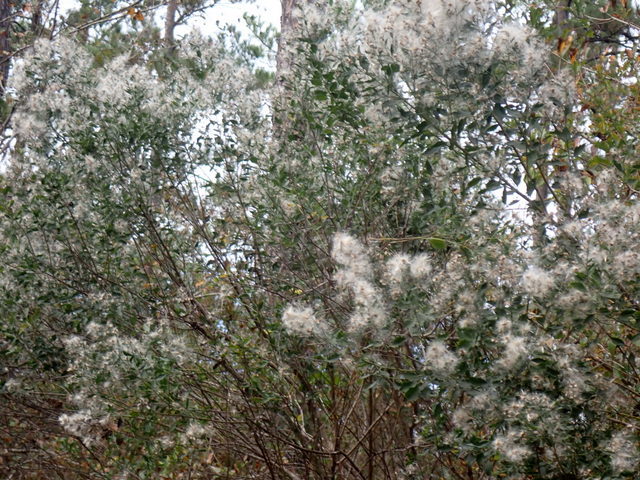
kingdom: Plantae
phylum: Tracheophyta
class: Magnoliopsida
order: Asterales
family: Asteraceae
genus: Baccharis
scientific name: Baccharis halimifolia
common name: Eastern baccharis
